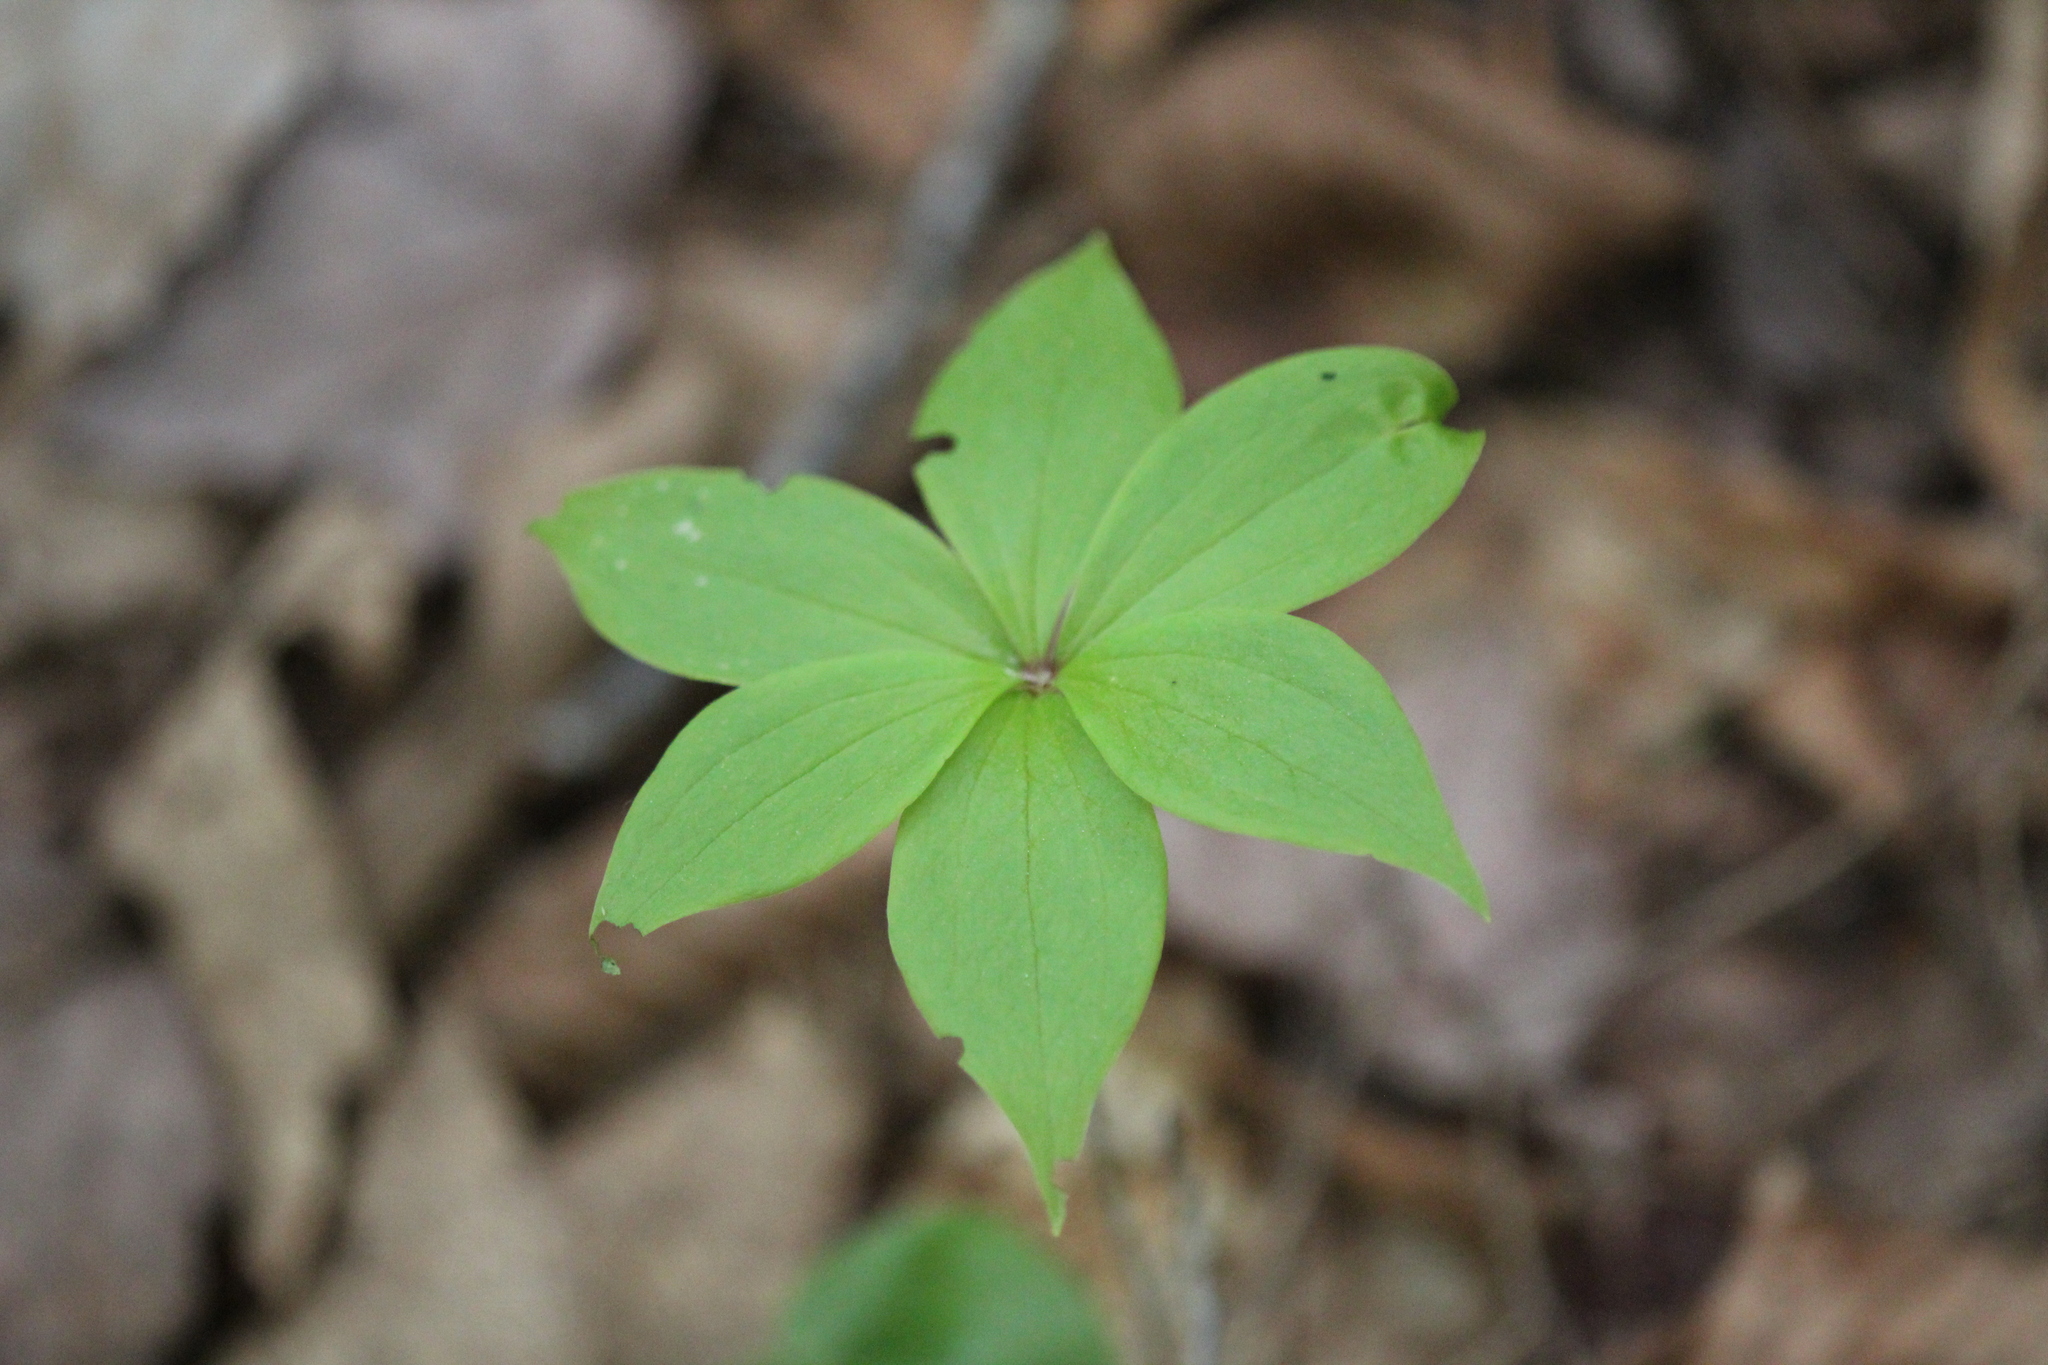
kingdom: Plantae
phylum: Tracheophyta
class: Liliopsida
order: Liliales
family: Liliaceae
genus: Medeola
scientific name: Medeola virginiana
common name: Indian cucumber-root
